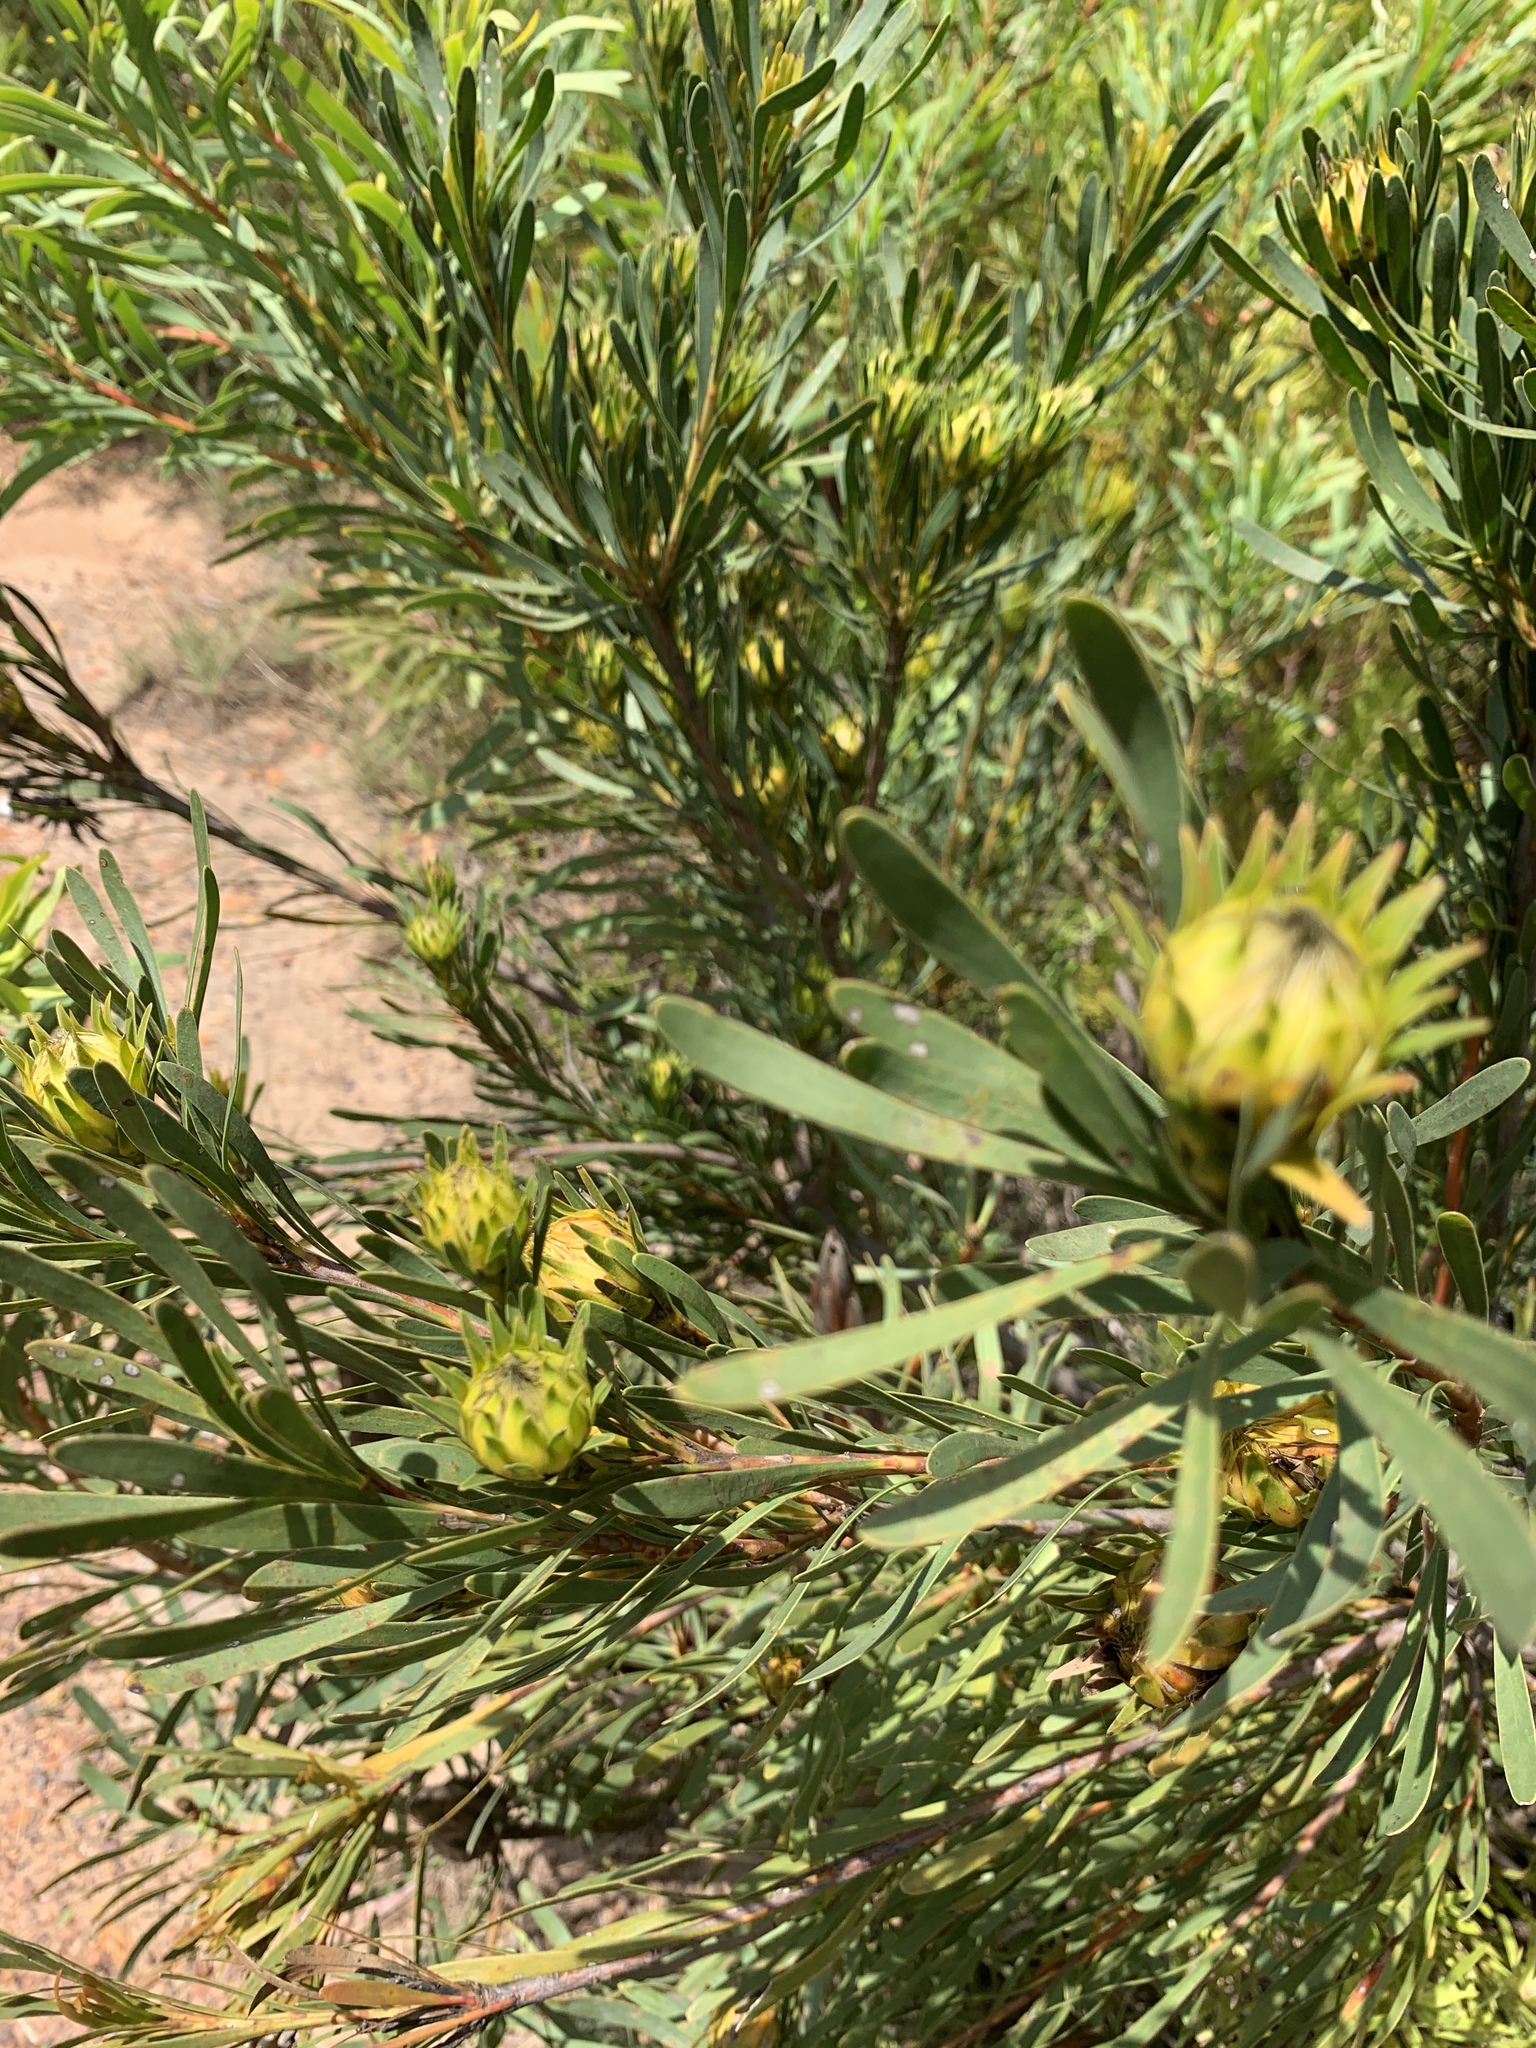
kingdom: Plantae
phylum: Tracheophyta
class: Magnoliopsida
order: Proteales
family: Proteaceae
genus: Aulax
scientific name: Aulax umbellata
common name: Broad-leaf featherbush
